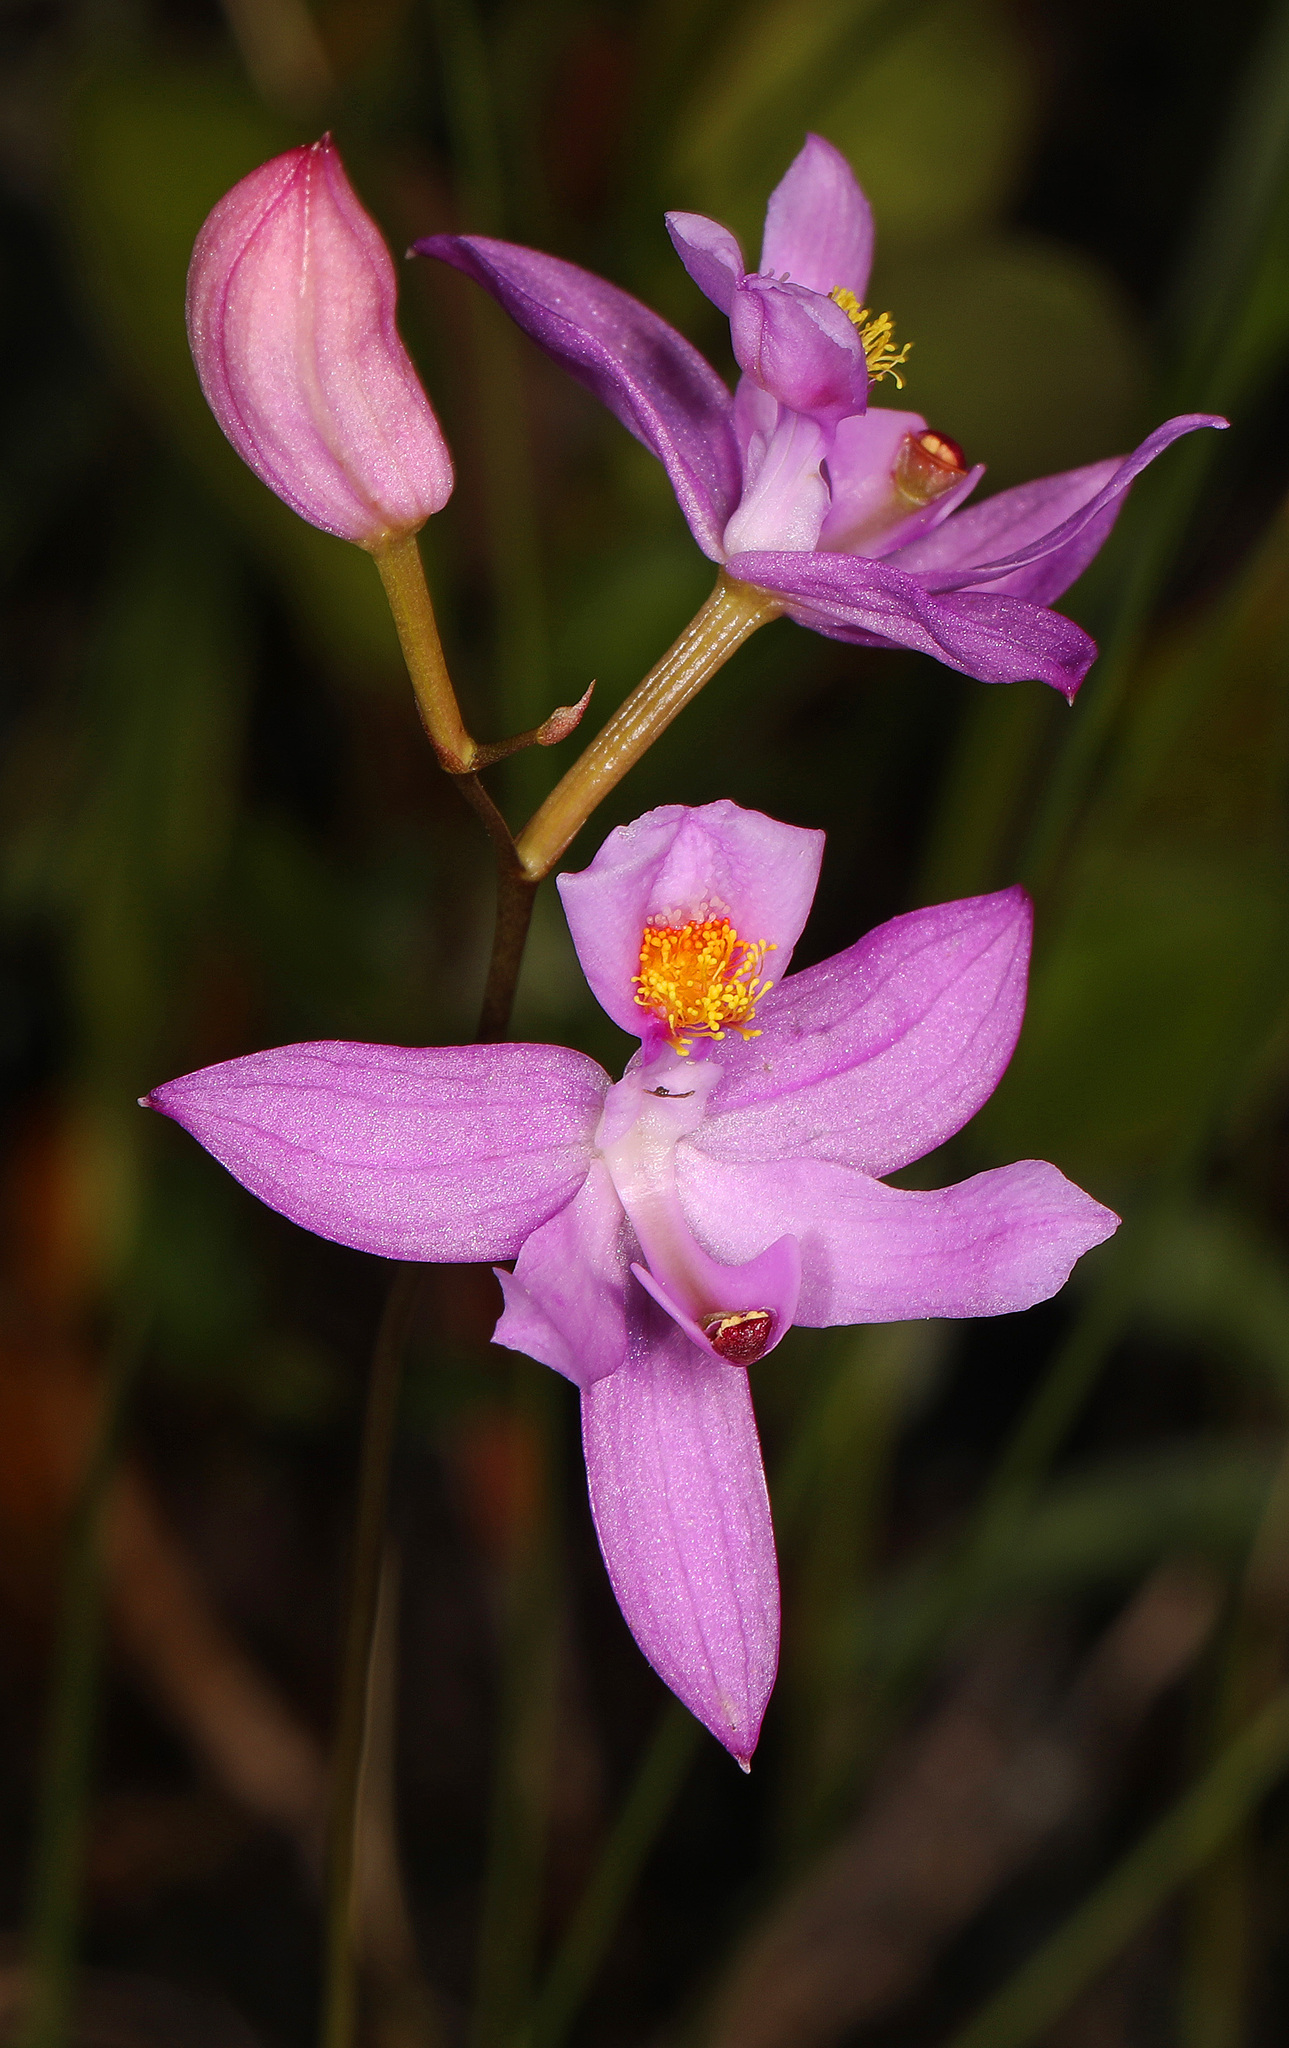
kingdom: Plantae
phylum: Tracheophyta
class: Liliopsida
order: Asparagales
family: Orchidaceae
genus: Calopogon
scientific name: Calopogon barbatus
